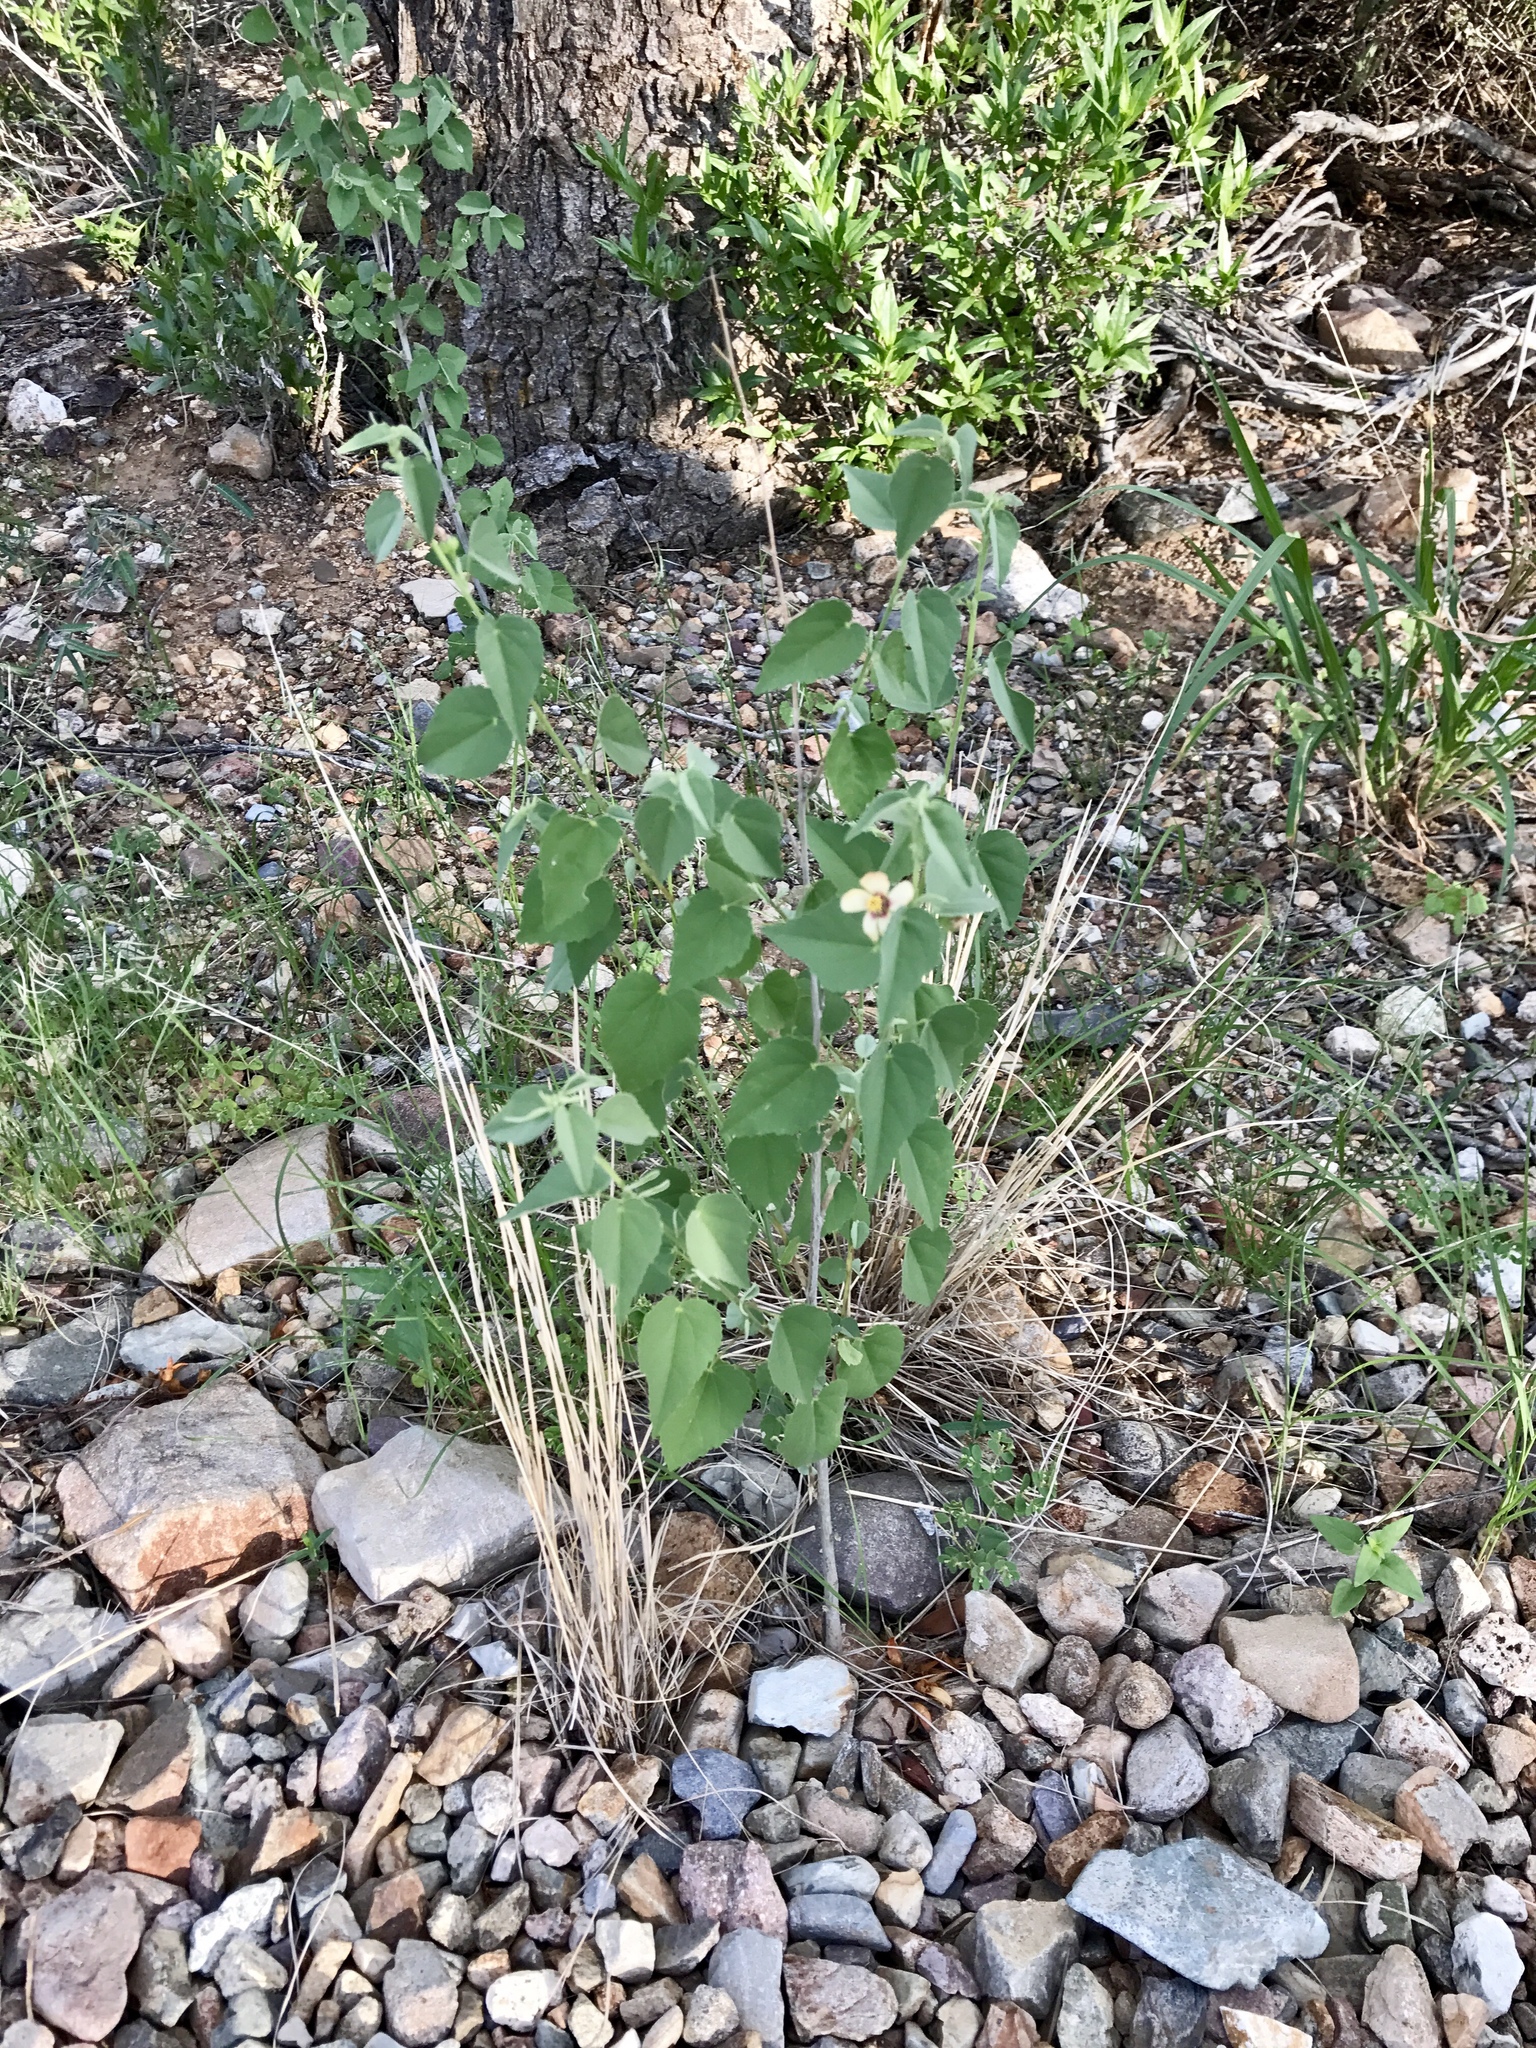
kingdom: Plantae
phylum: Tracheophyta
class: Magnoliopsida
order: Malvales
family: Malvaceae
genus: Abutilon
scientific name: Abutilon incanum
